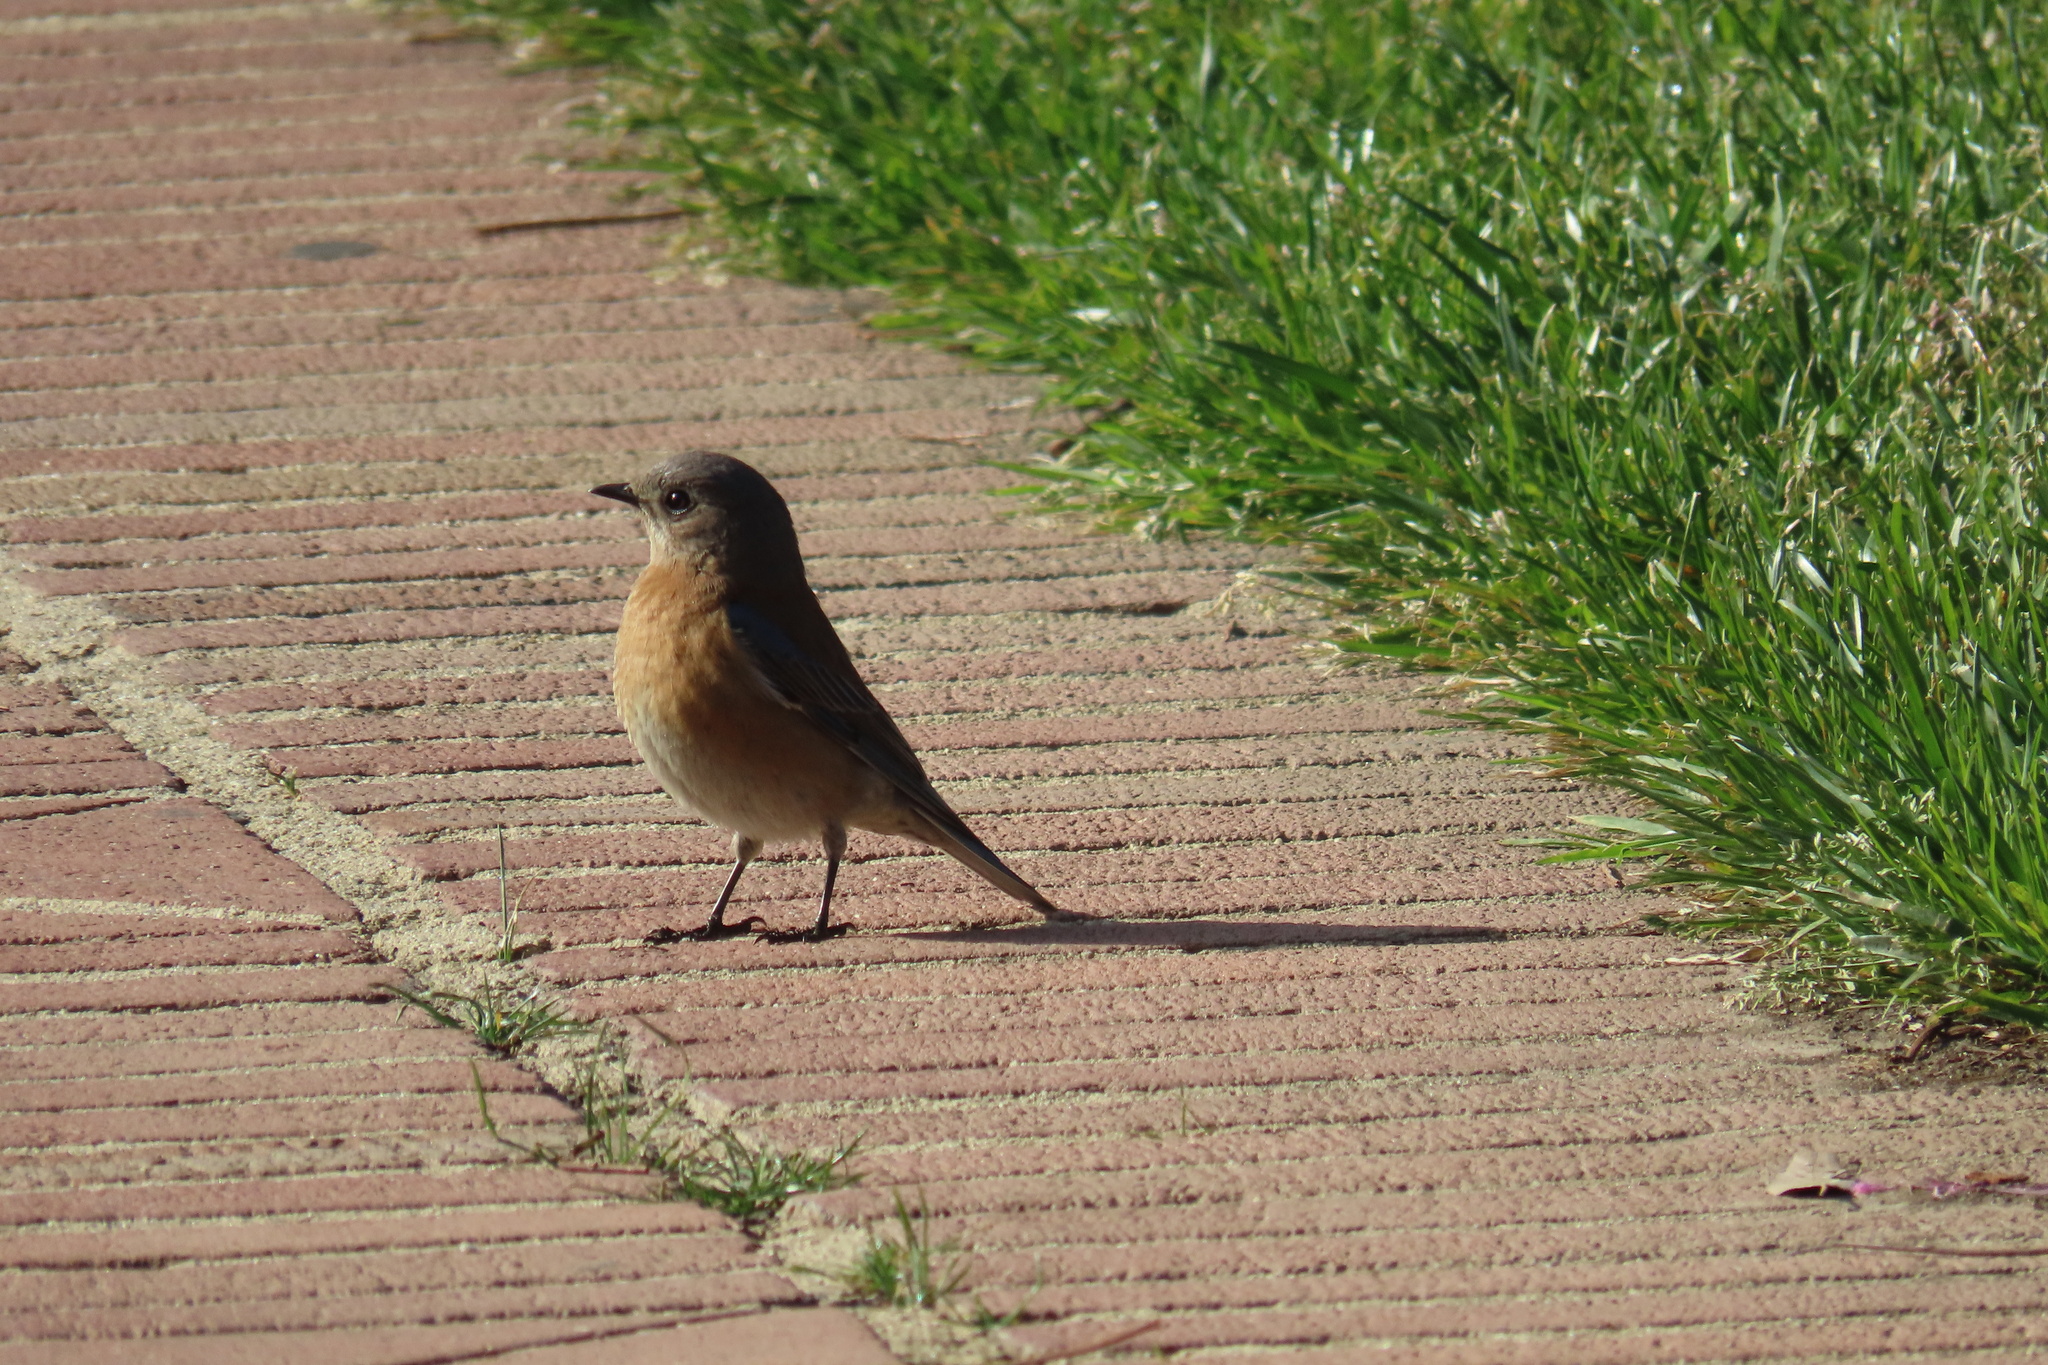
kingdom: Animalia
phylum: Chordata
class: Aves
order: Passeriformes
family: Turdidae
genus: Sialia
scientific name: Sialia mexicana
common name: Western bluebird
